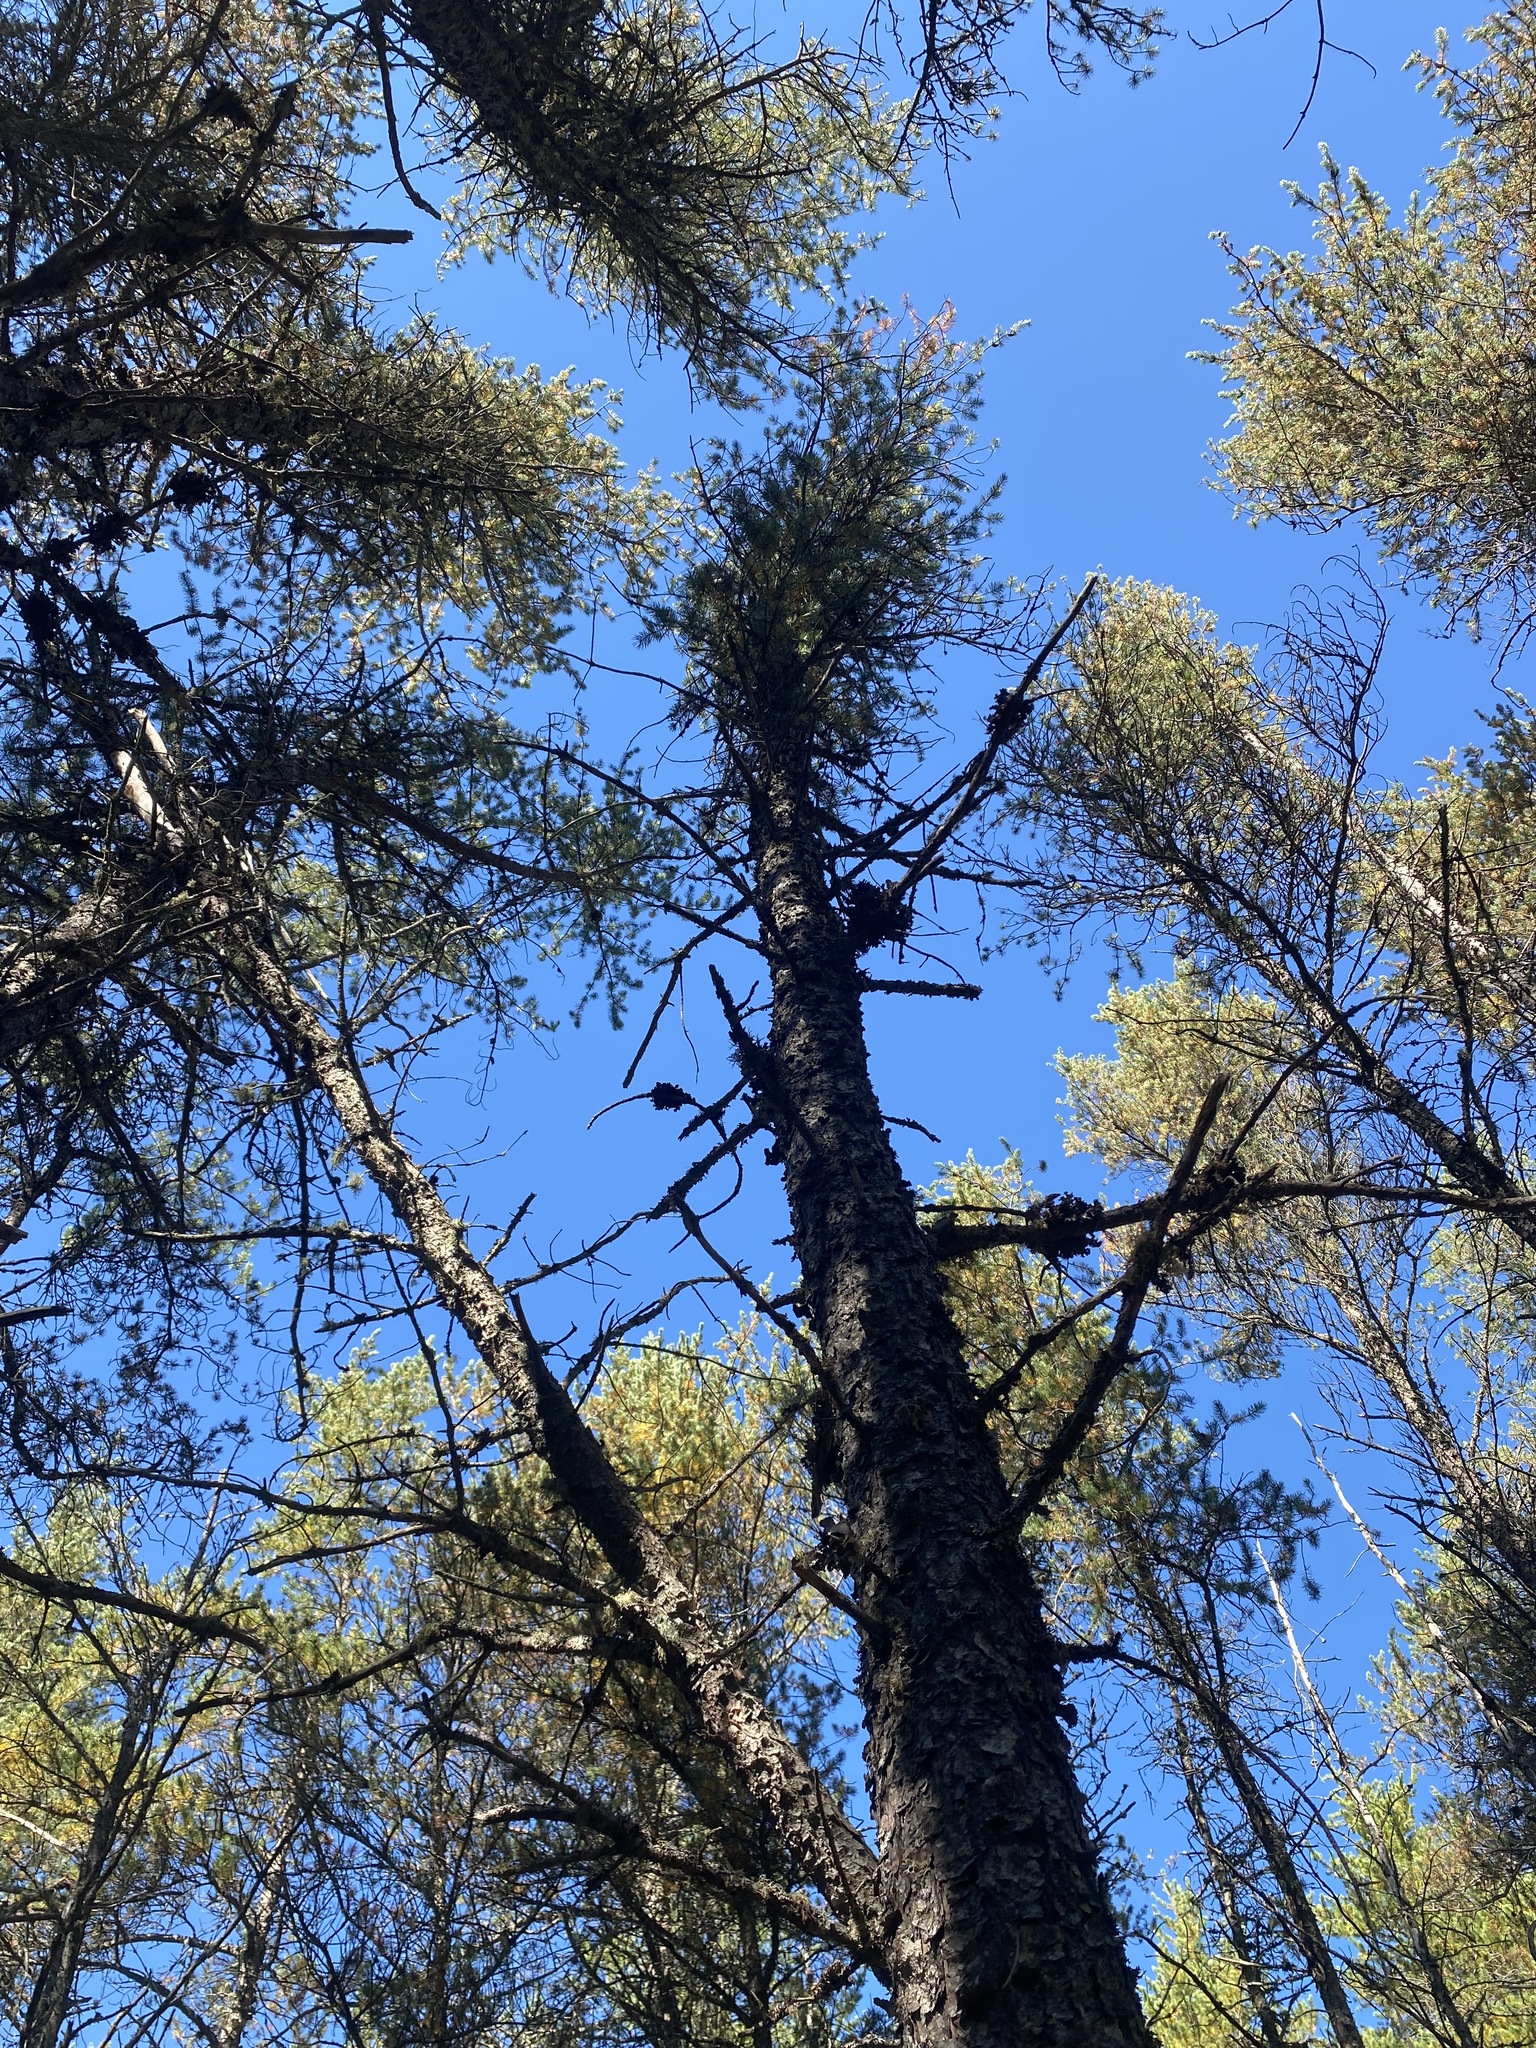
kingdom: Plantae
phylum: Tracheophyta
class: Pinopsida
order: Pinales
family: Pinaceae
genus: Pinus
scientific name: Pinus banksiana
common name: Jack pine
